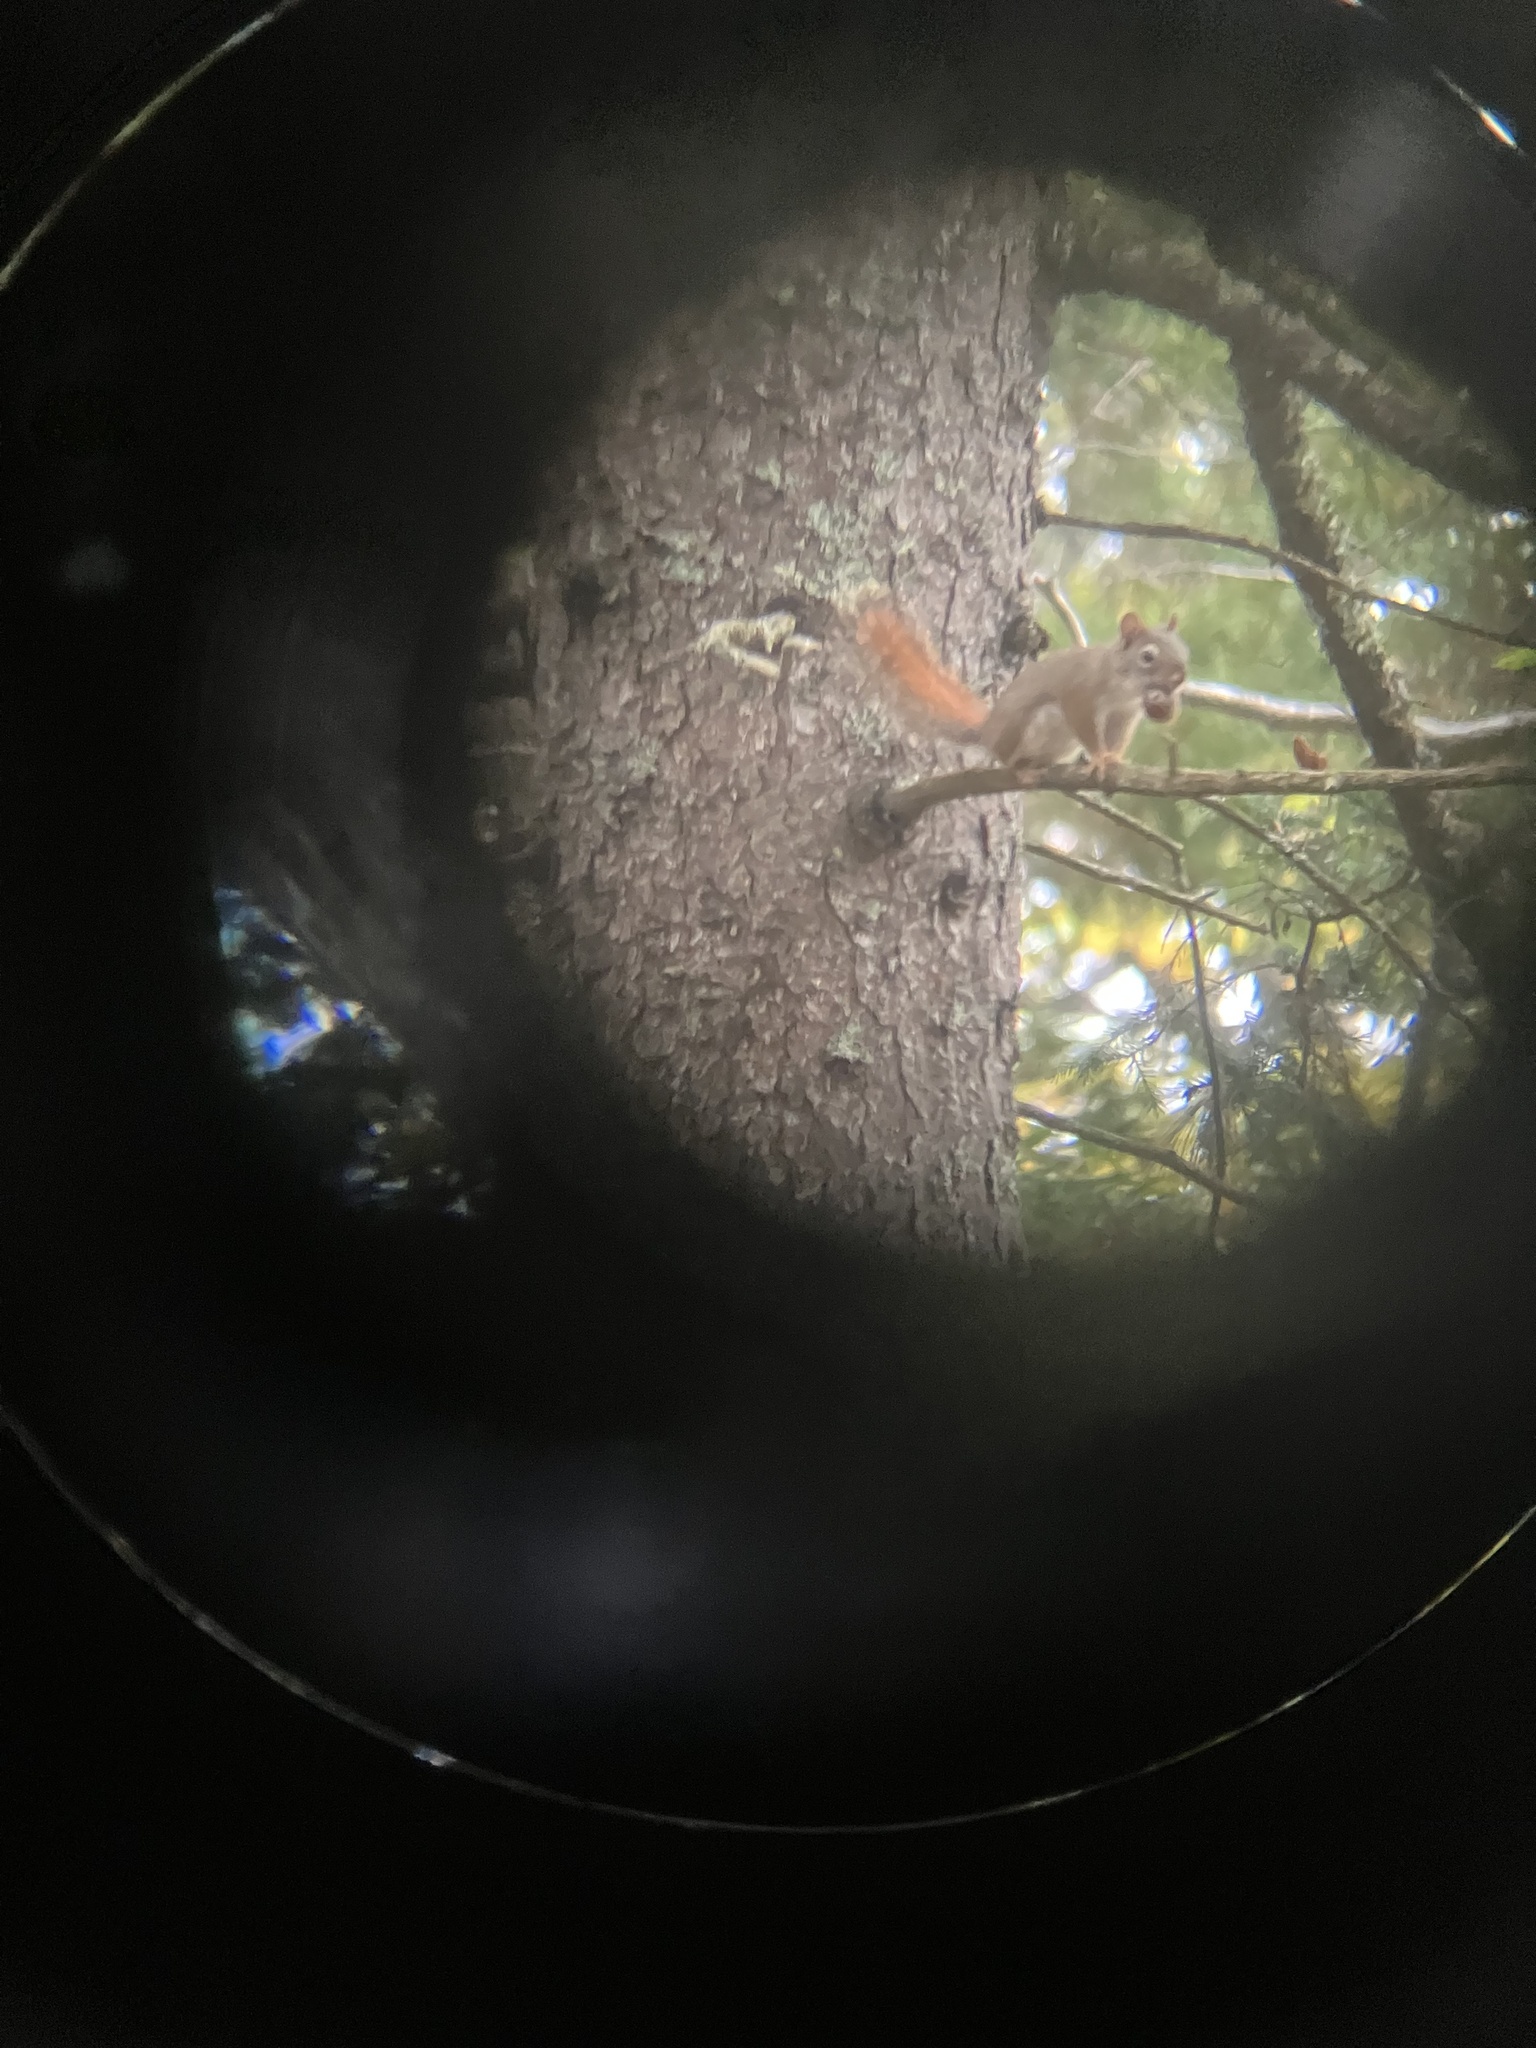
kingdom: Animalia
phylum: Chordata
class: Mammalia
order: Rodentia
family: Sciuridae
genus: Tamiasciurus
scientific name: Tamiasciurus hudsonicus
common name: Red squirrel
